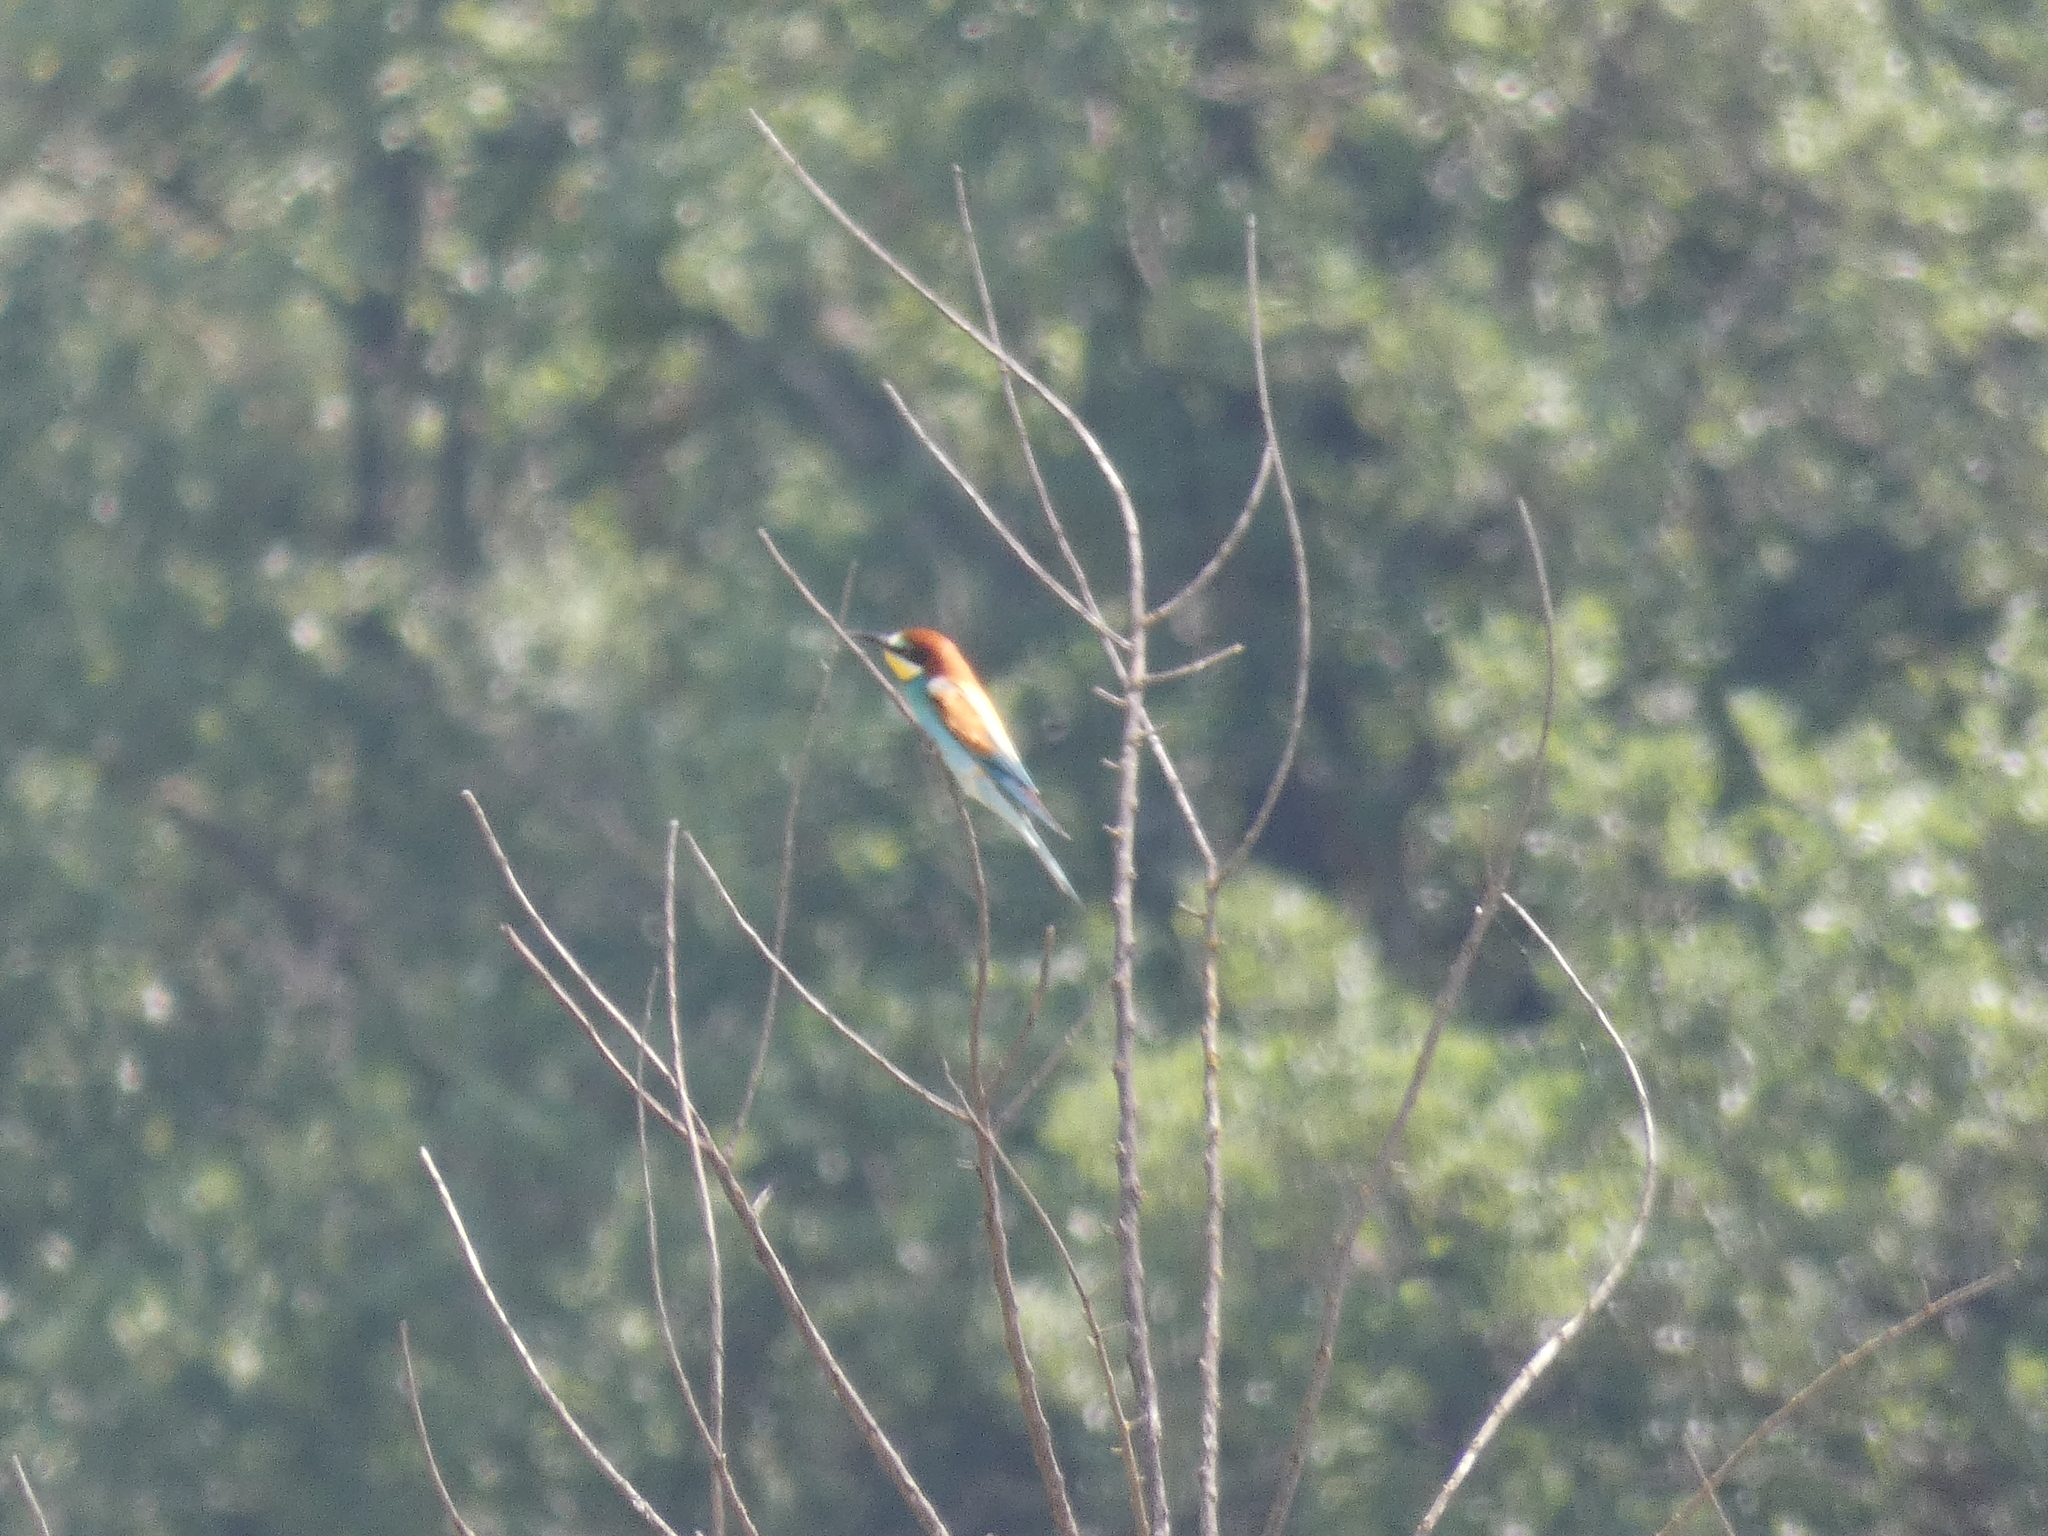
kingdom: Animalia
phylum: Chordata
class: Aves
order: Coraciiformes
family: Meropidae
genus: Merops
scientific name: Merops apiaster
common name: European bee-eater
